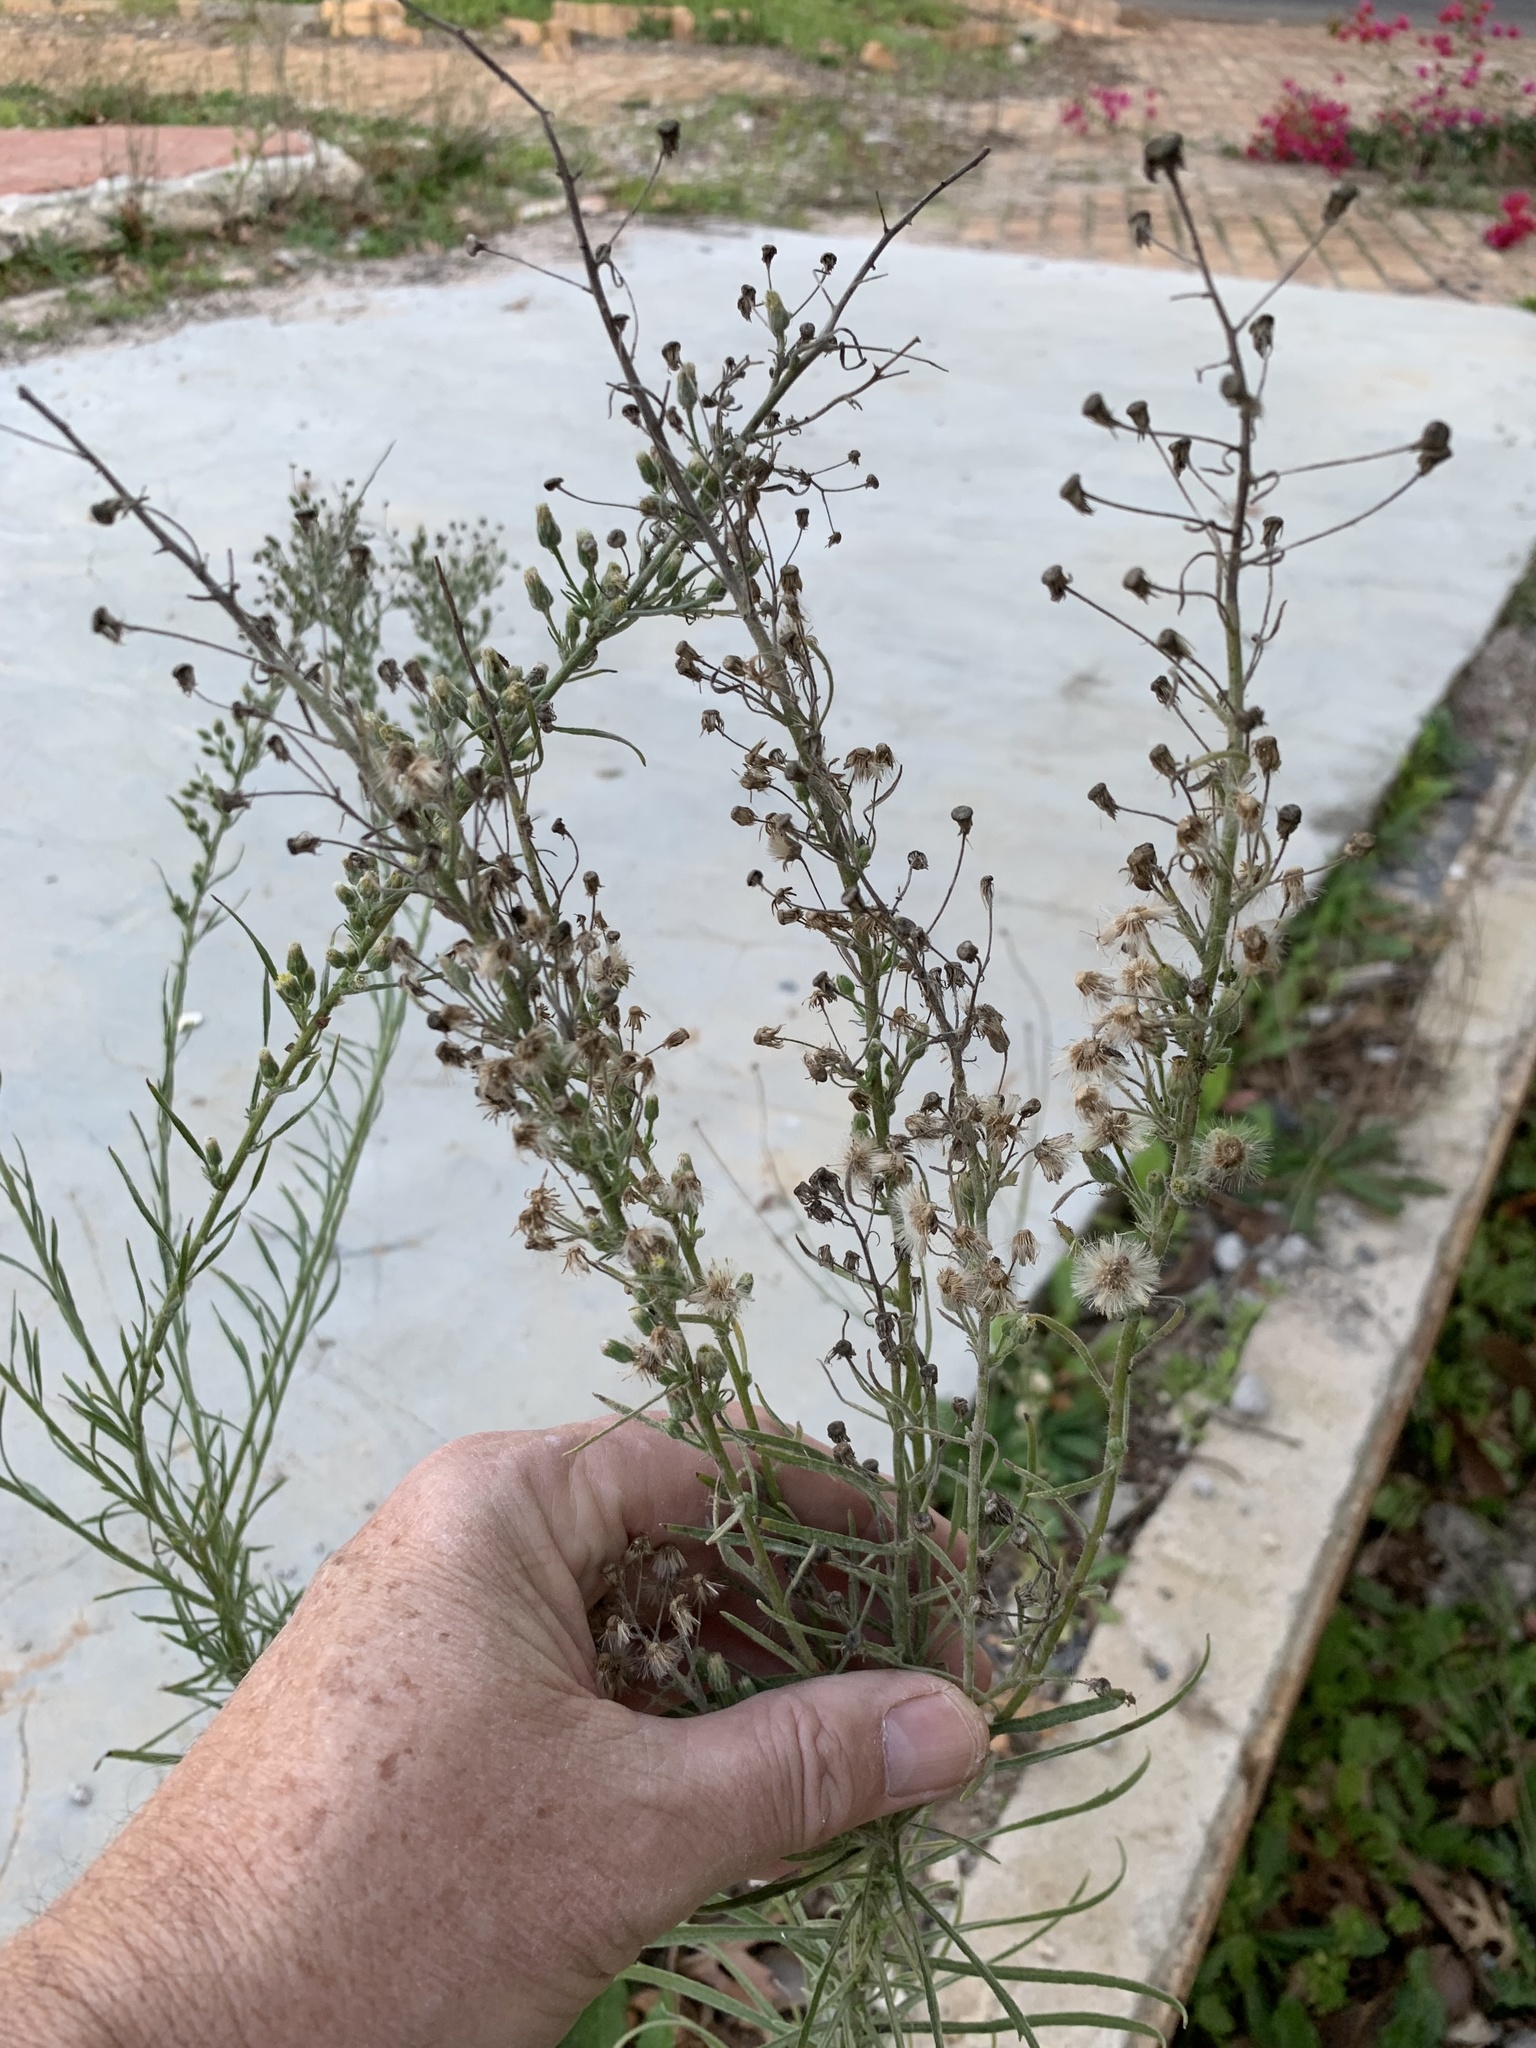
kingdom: Plantae
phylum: Tracheophyta
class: Magnoliopsida
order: Asterales
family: Asteraceae
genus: Erigeron
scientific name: Erigeron bonariensis
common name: Argentine fleabane
